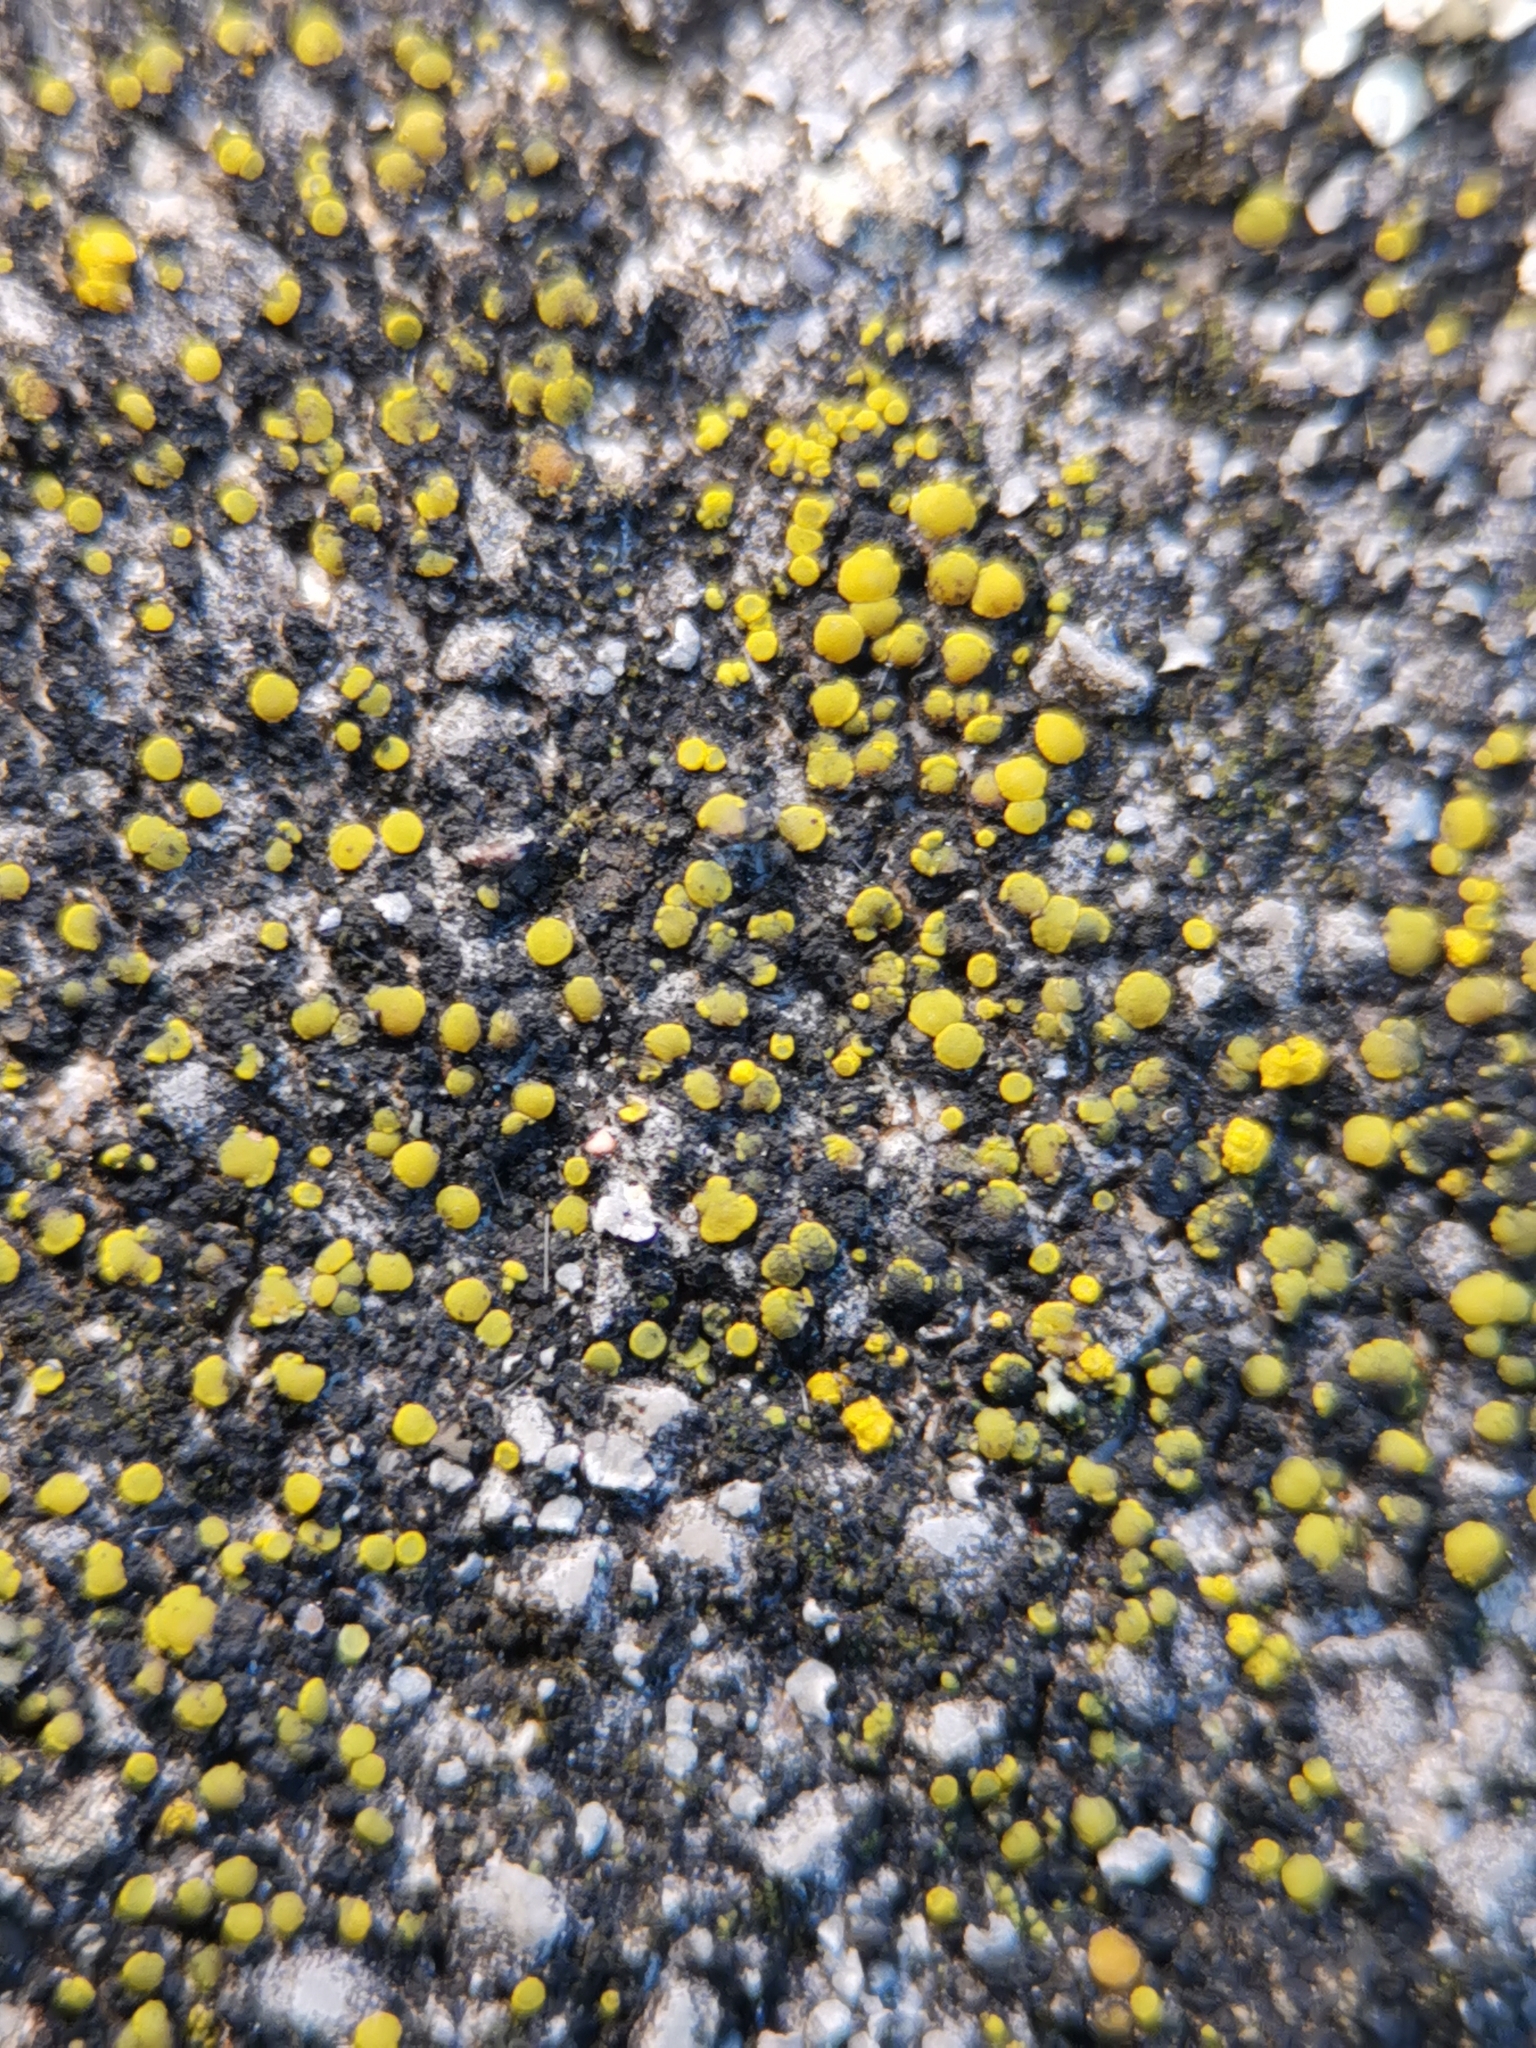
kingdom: Fungi
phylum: Ascomycota
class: Candelariomycetes
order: Candelariales
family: Candelariaceae
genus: Candelariella
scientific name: Candelariella aurella
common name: Hidden goldspeck lichen
